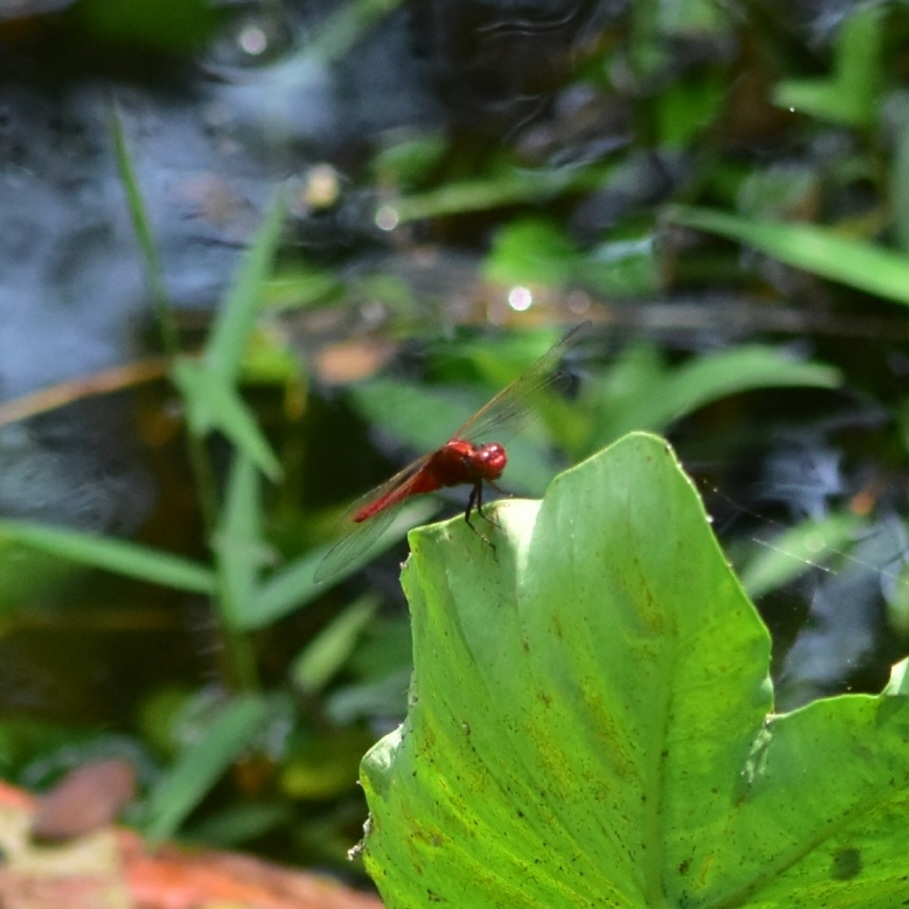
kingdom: Animalia
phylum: Arthropoda
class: Insecta
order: Odonata
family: Libellulidae
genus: Rhodothemis
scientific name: Rhodothemis rufa
